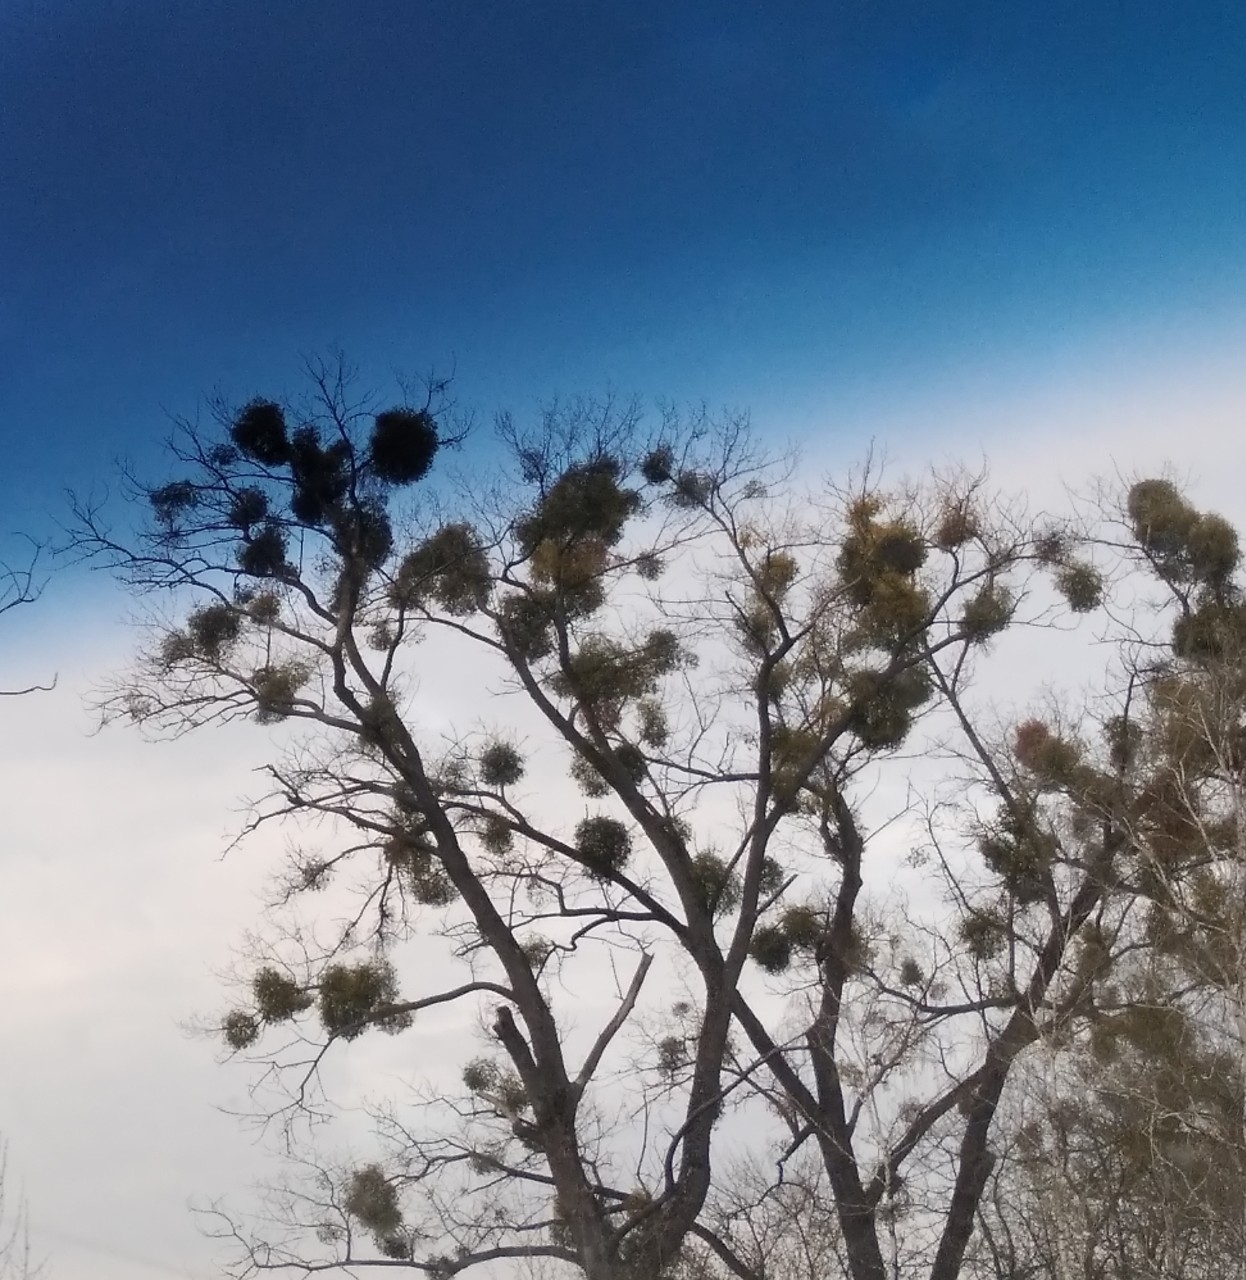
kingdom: Plantae
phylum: Tracheophyta
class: Magnoliopsida
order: Santalales
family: Viscaceae
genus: Viscum
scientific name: Viscum album
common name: Mistletoe
